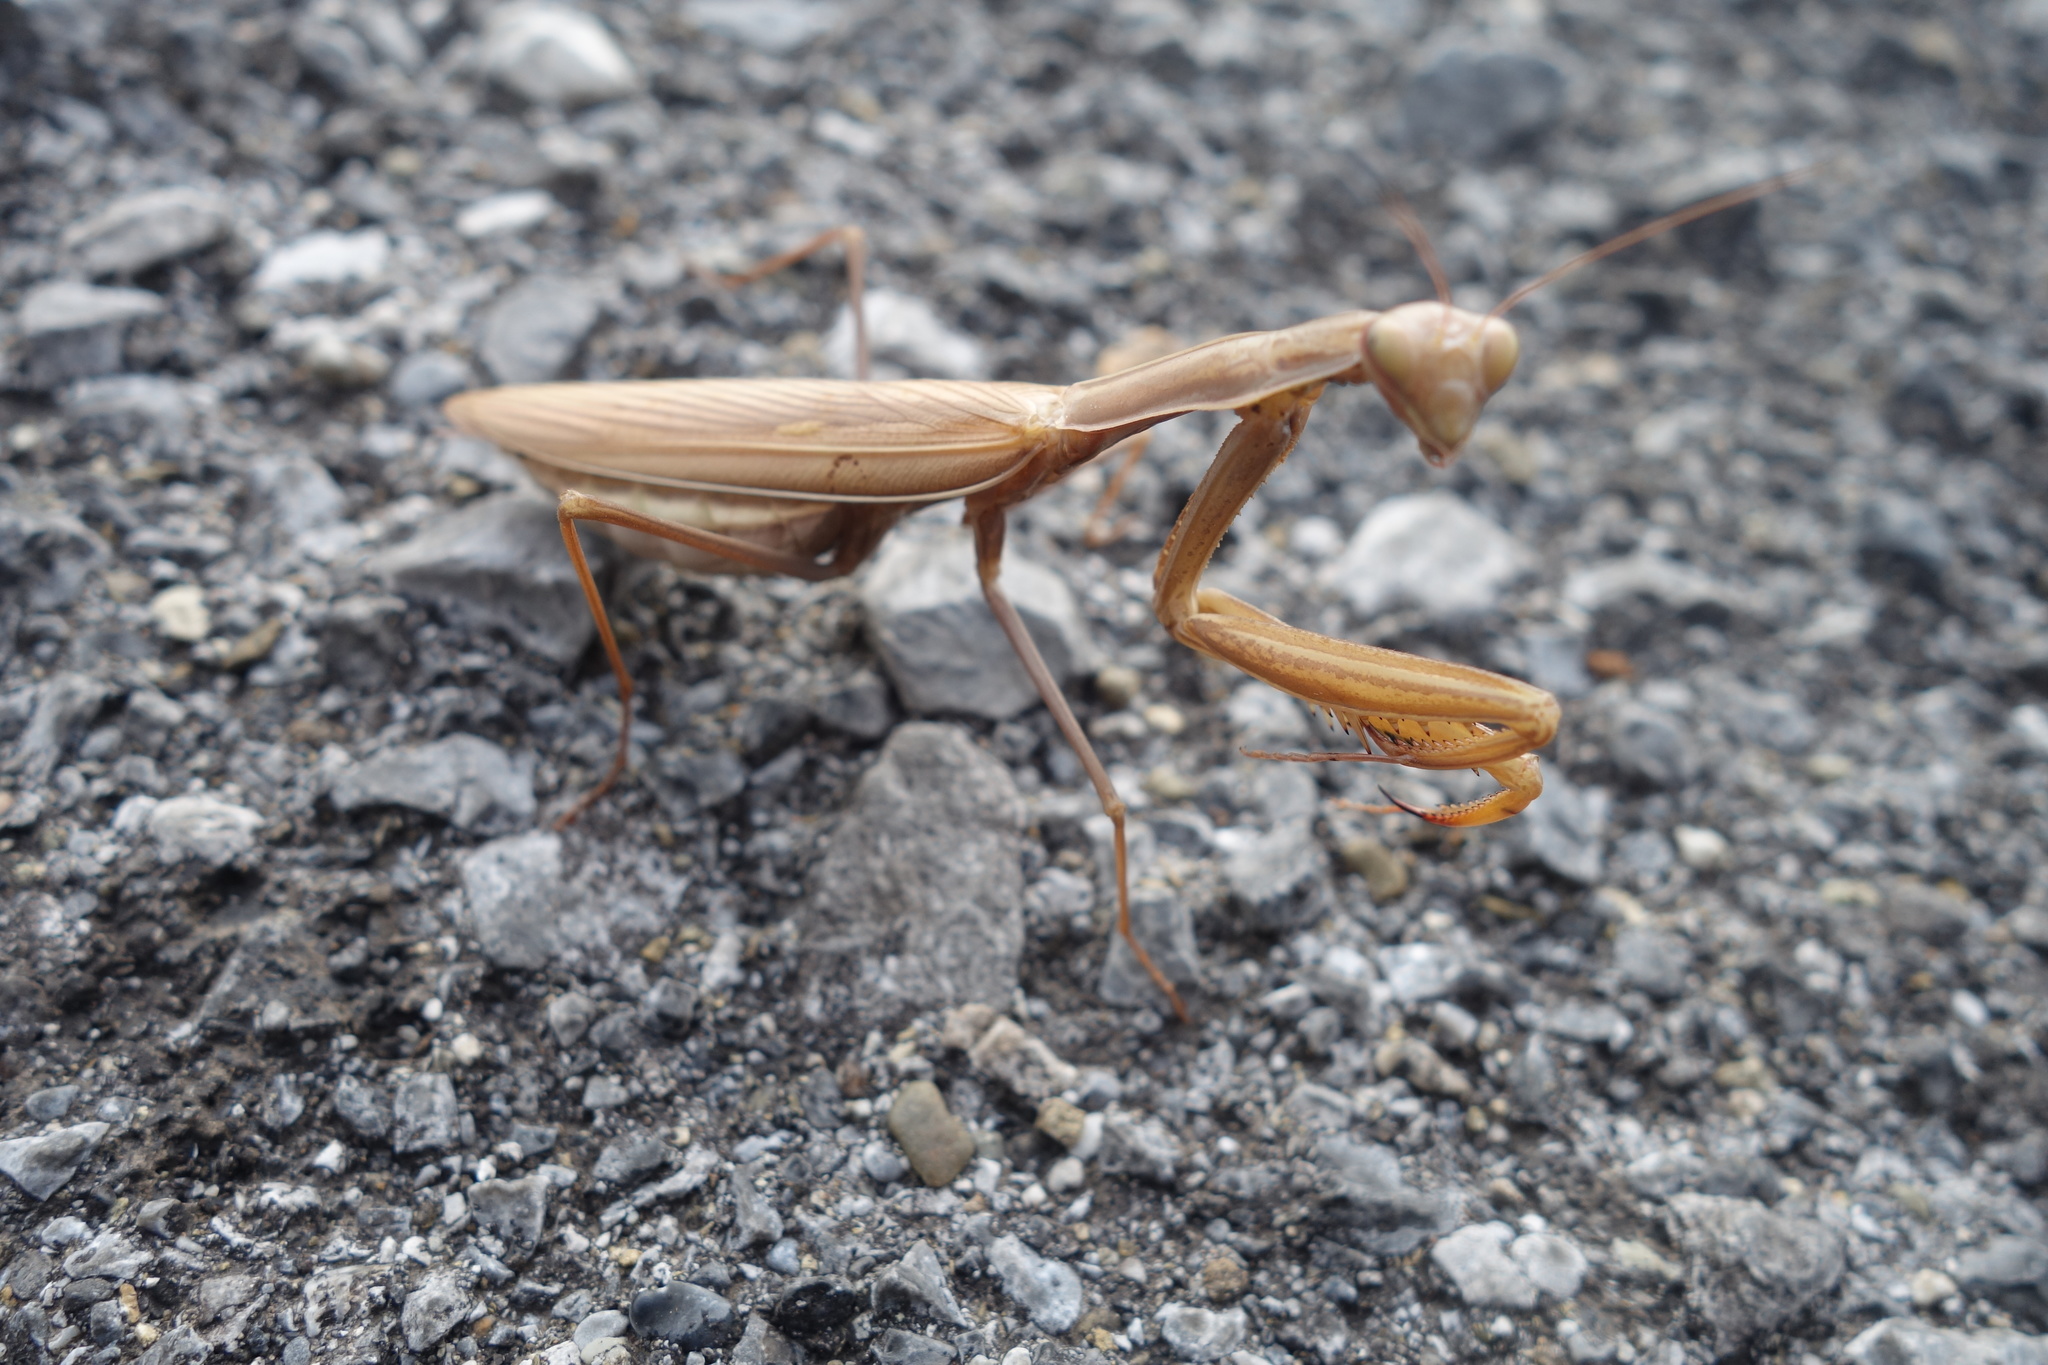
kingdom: Animalia
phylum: Arthropoda
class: Insecta
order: Mantodea
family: Mantidae
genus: Mantis
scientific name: Mantis religiosa
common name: Praying mantis
